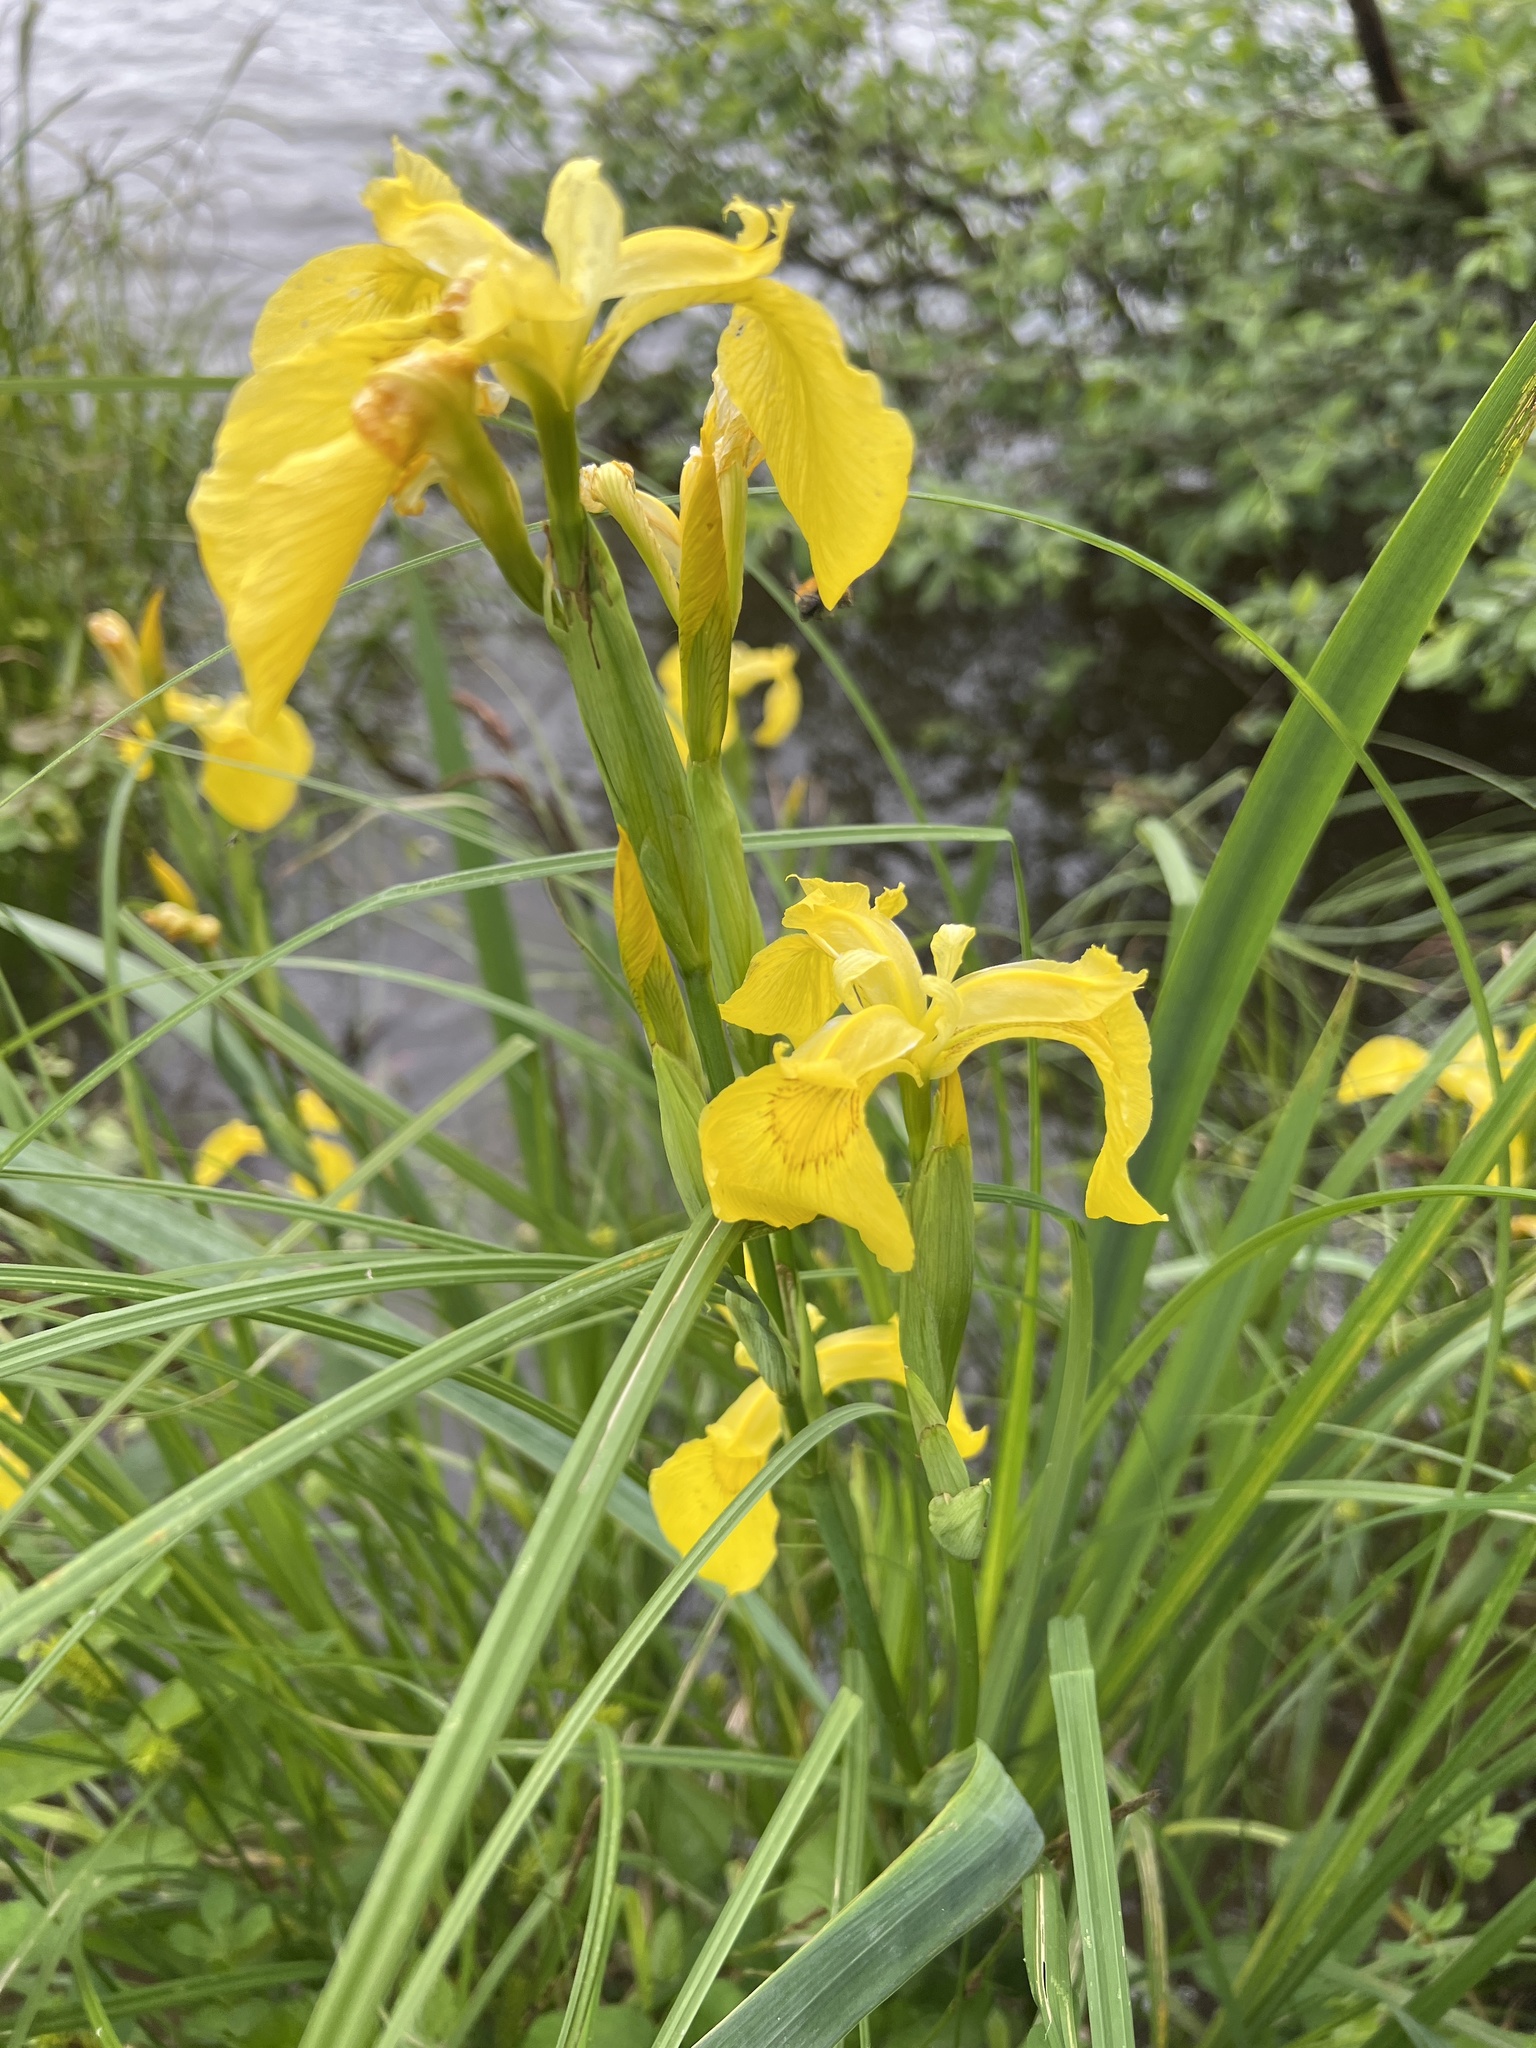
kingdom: Plantae
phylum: Tracheophyta
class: Liliopsida
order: Asparagales
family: Iridaceae
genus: Iris
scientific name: Iris pseudacorus
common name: Yellow flag
